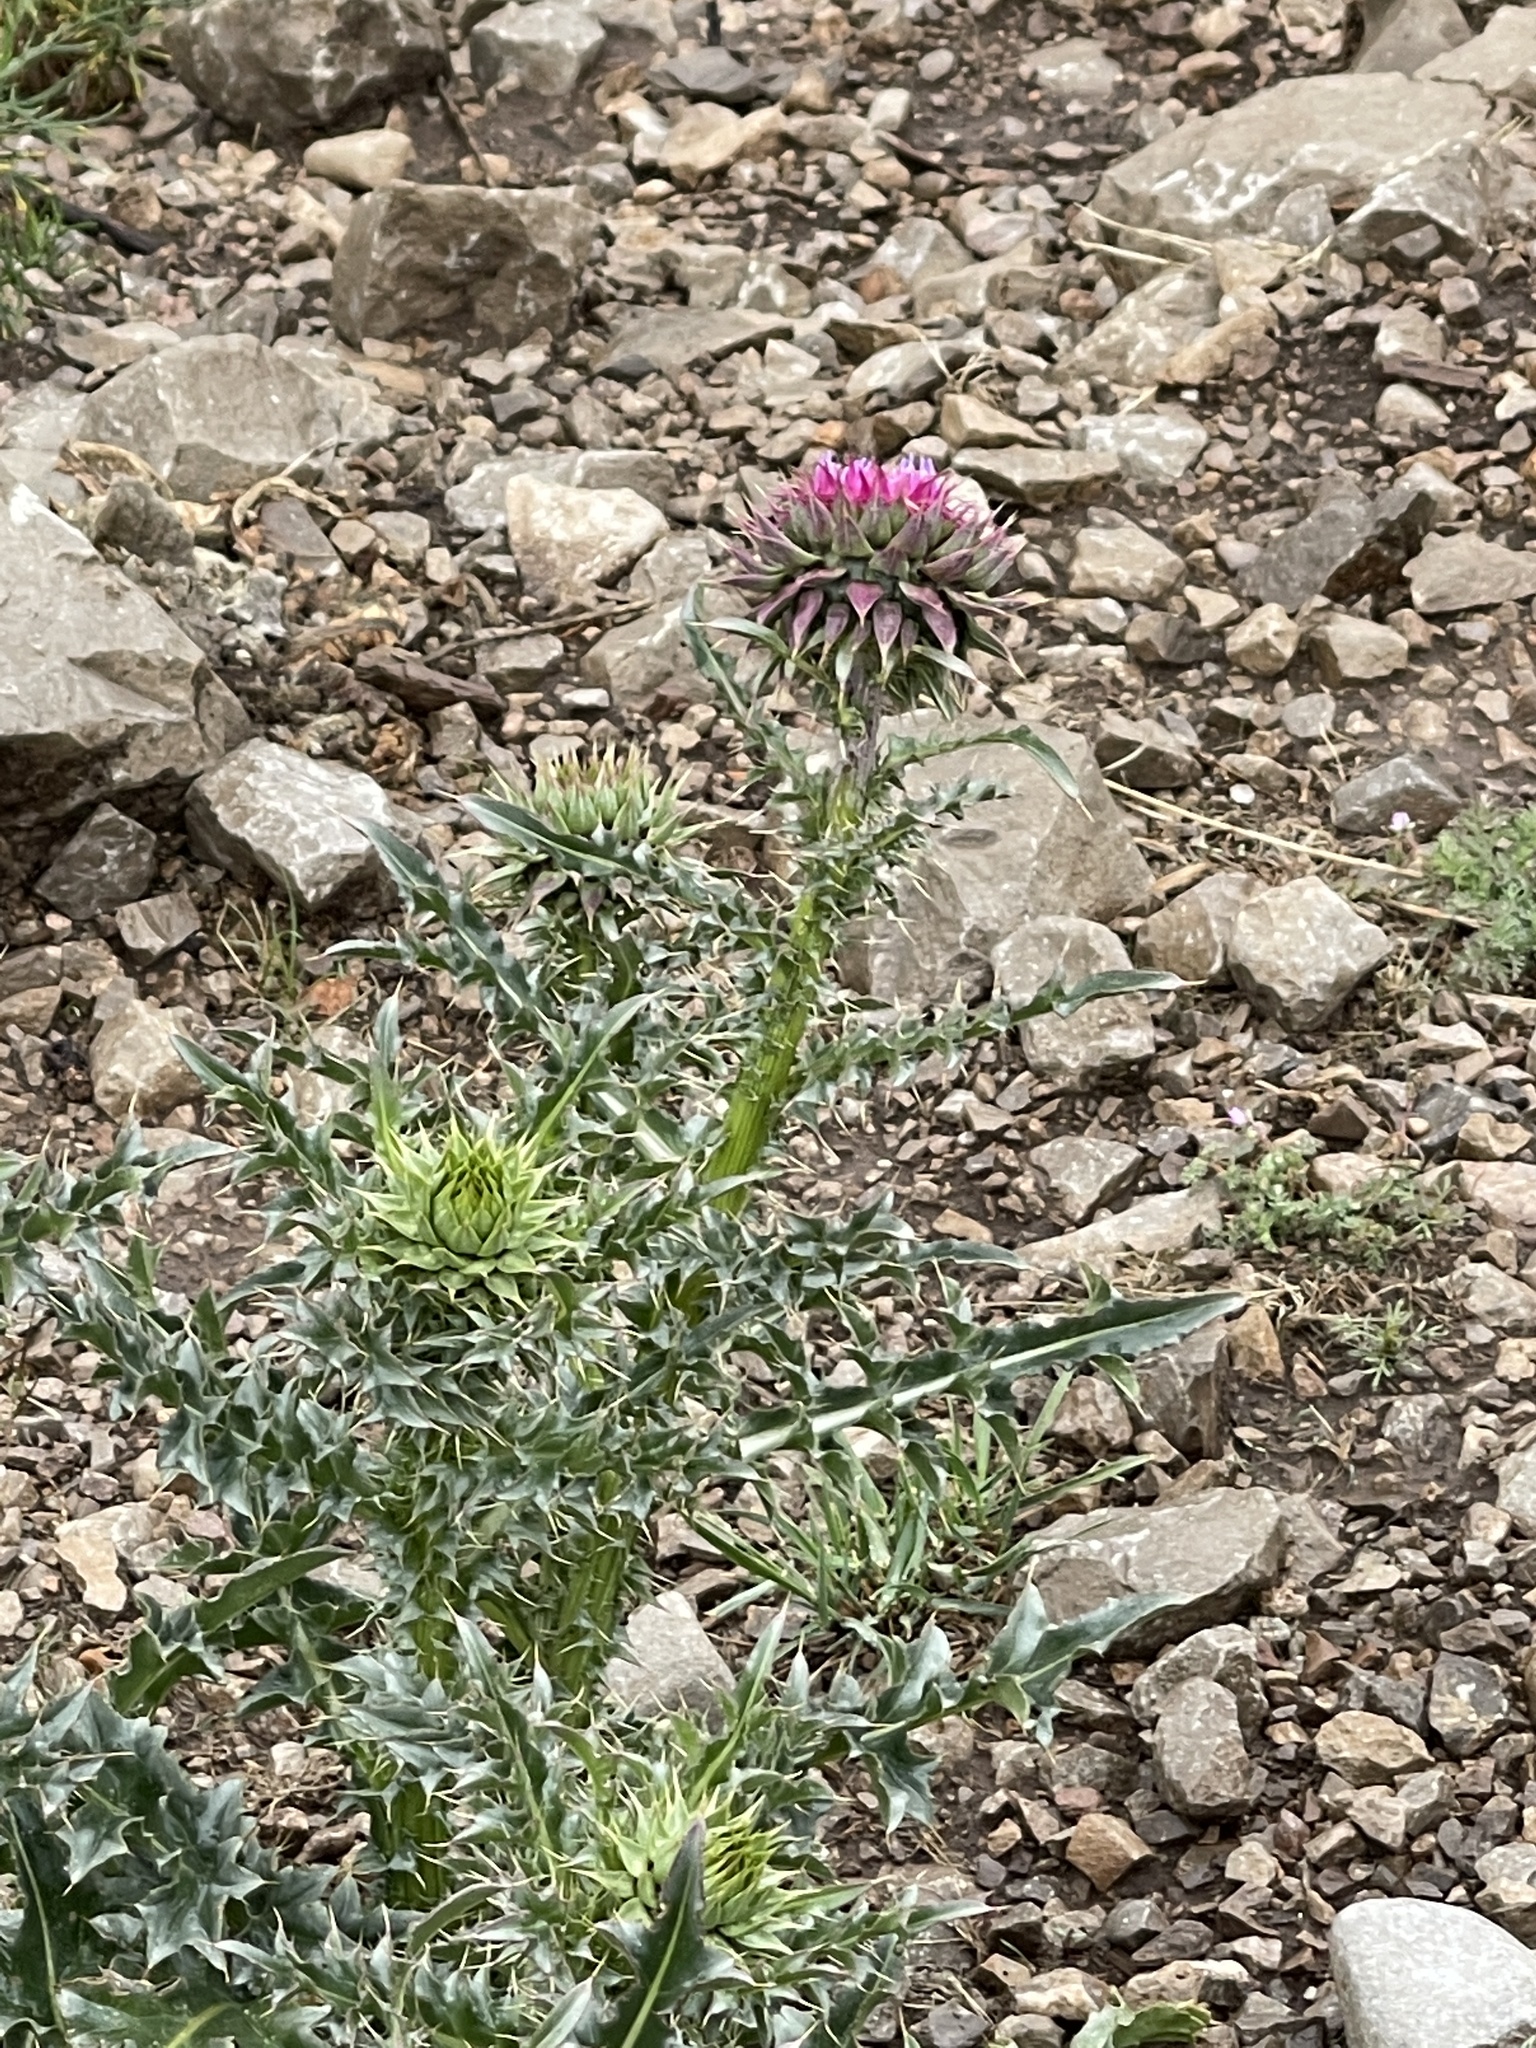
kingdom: Plantae
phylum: Tracheophyta
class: Magnoliopsida
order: Asterales
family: Asteraceae
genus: Carduus
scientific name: Carduus nutans
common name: Musk thistle
